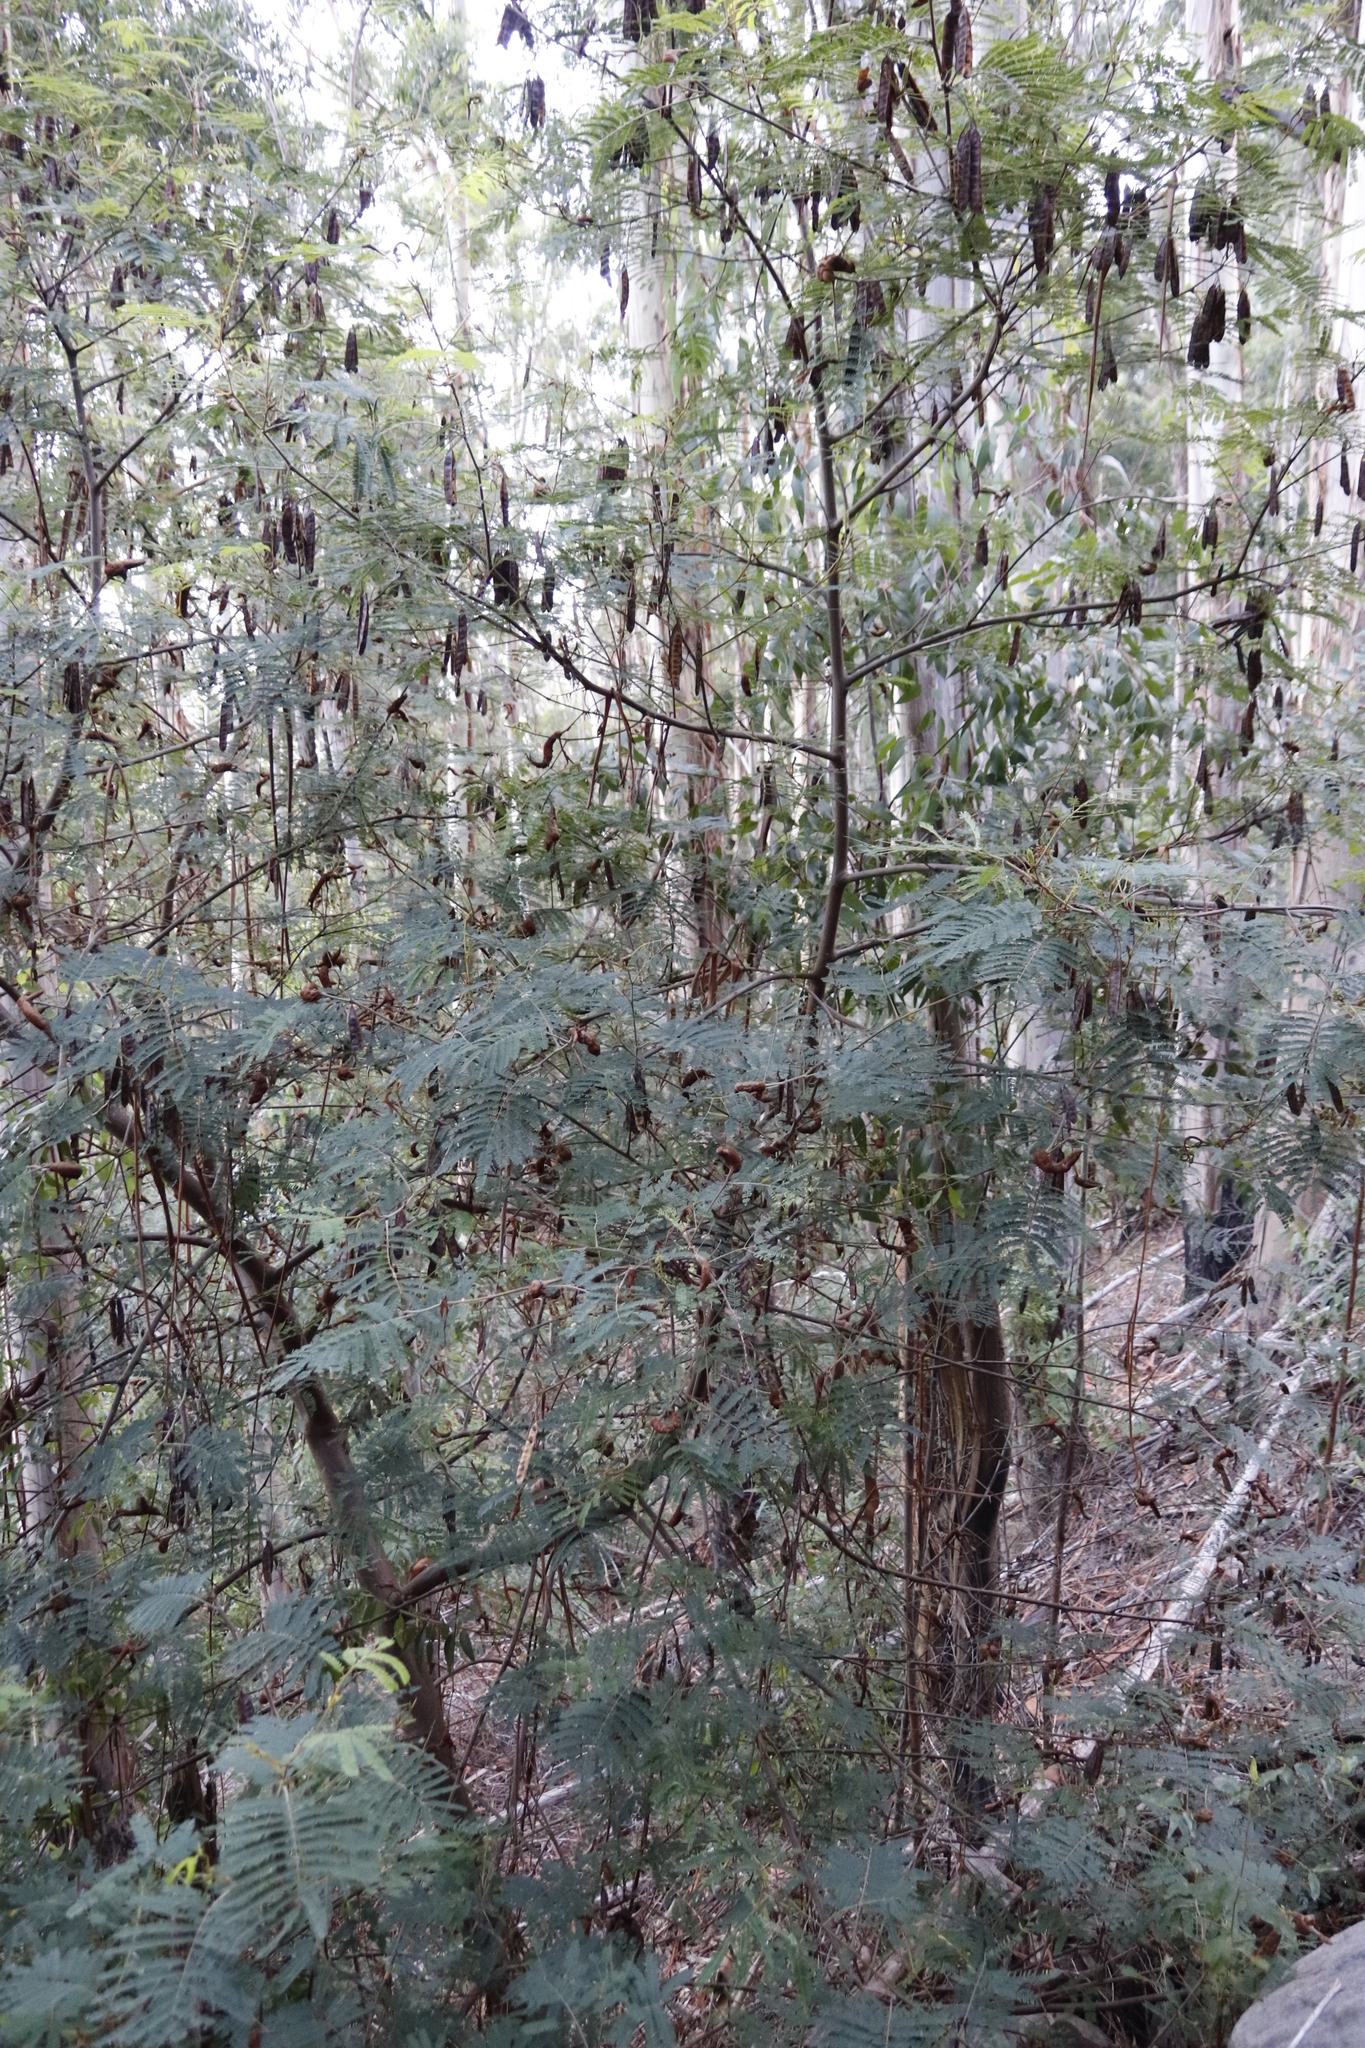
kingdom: Plantae
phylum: Tracheophyta
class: Magnoliopsida
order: Fabales
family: Fabaceae
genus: Paraserianthes
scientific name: Paraserianthes lophantha
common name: Plume albizia
